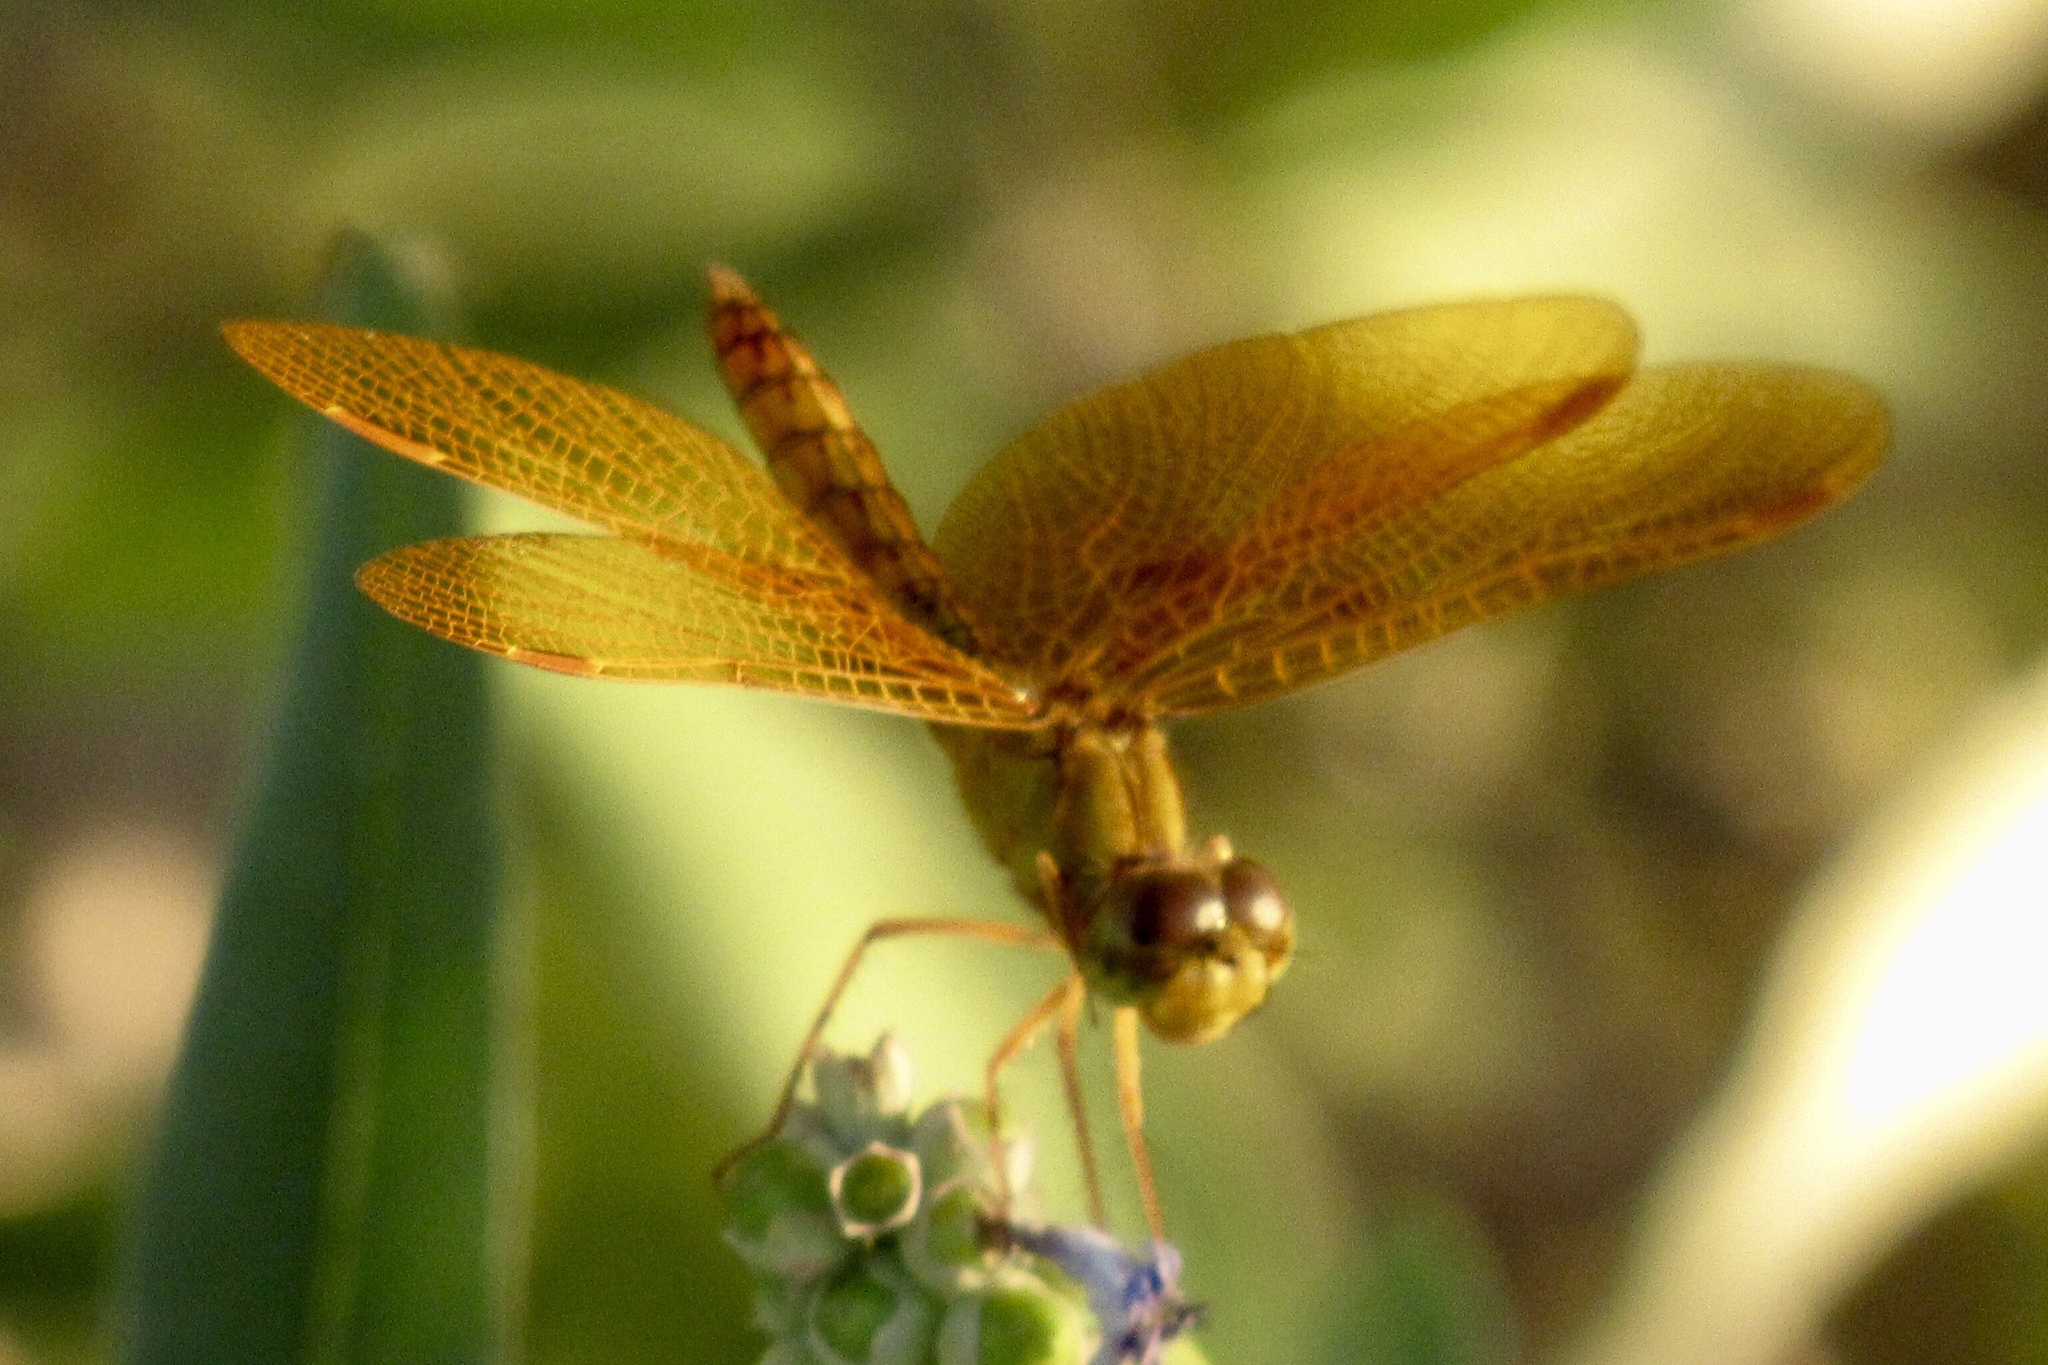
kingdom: Animalia
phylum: Arthropoda
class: Insecta
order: Odonata
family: Libellulidae
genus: Perithemis
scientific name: Perithemis intensa
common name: Mexican amberwing
